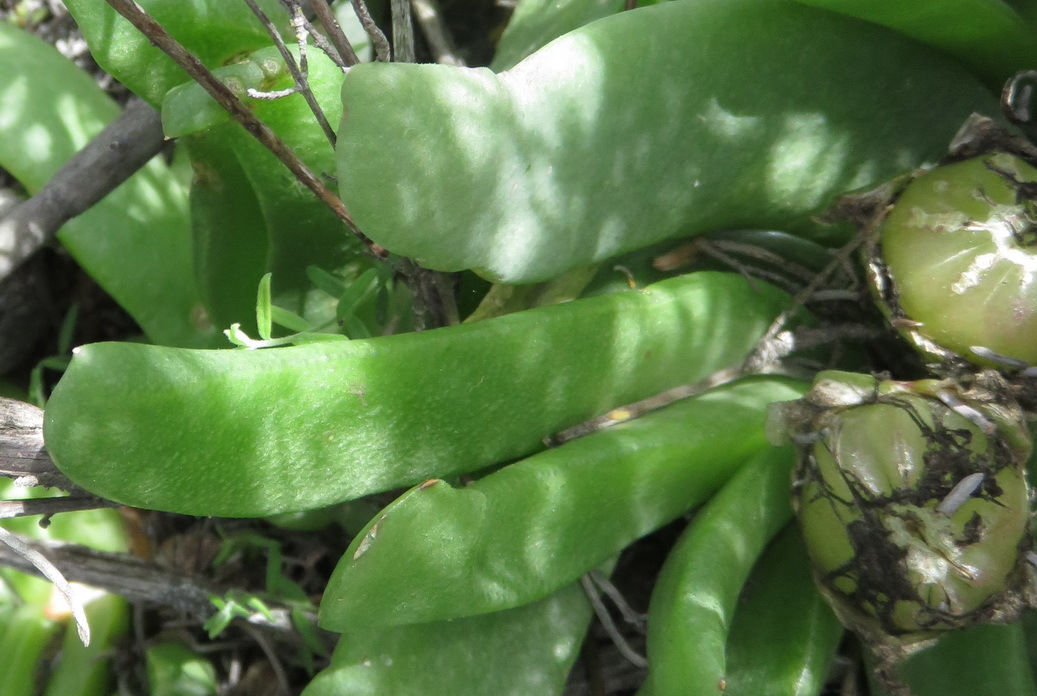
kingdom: Plantae
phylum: Tracheophyta
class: Magnoliopsida
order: Caryophyllales
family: Aizoaceae
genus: Glottiphyllum
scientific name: Glottiphyllum depressum
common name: Fig-marigold
